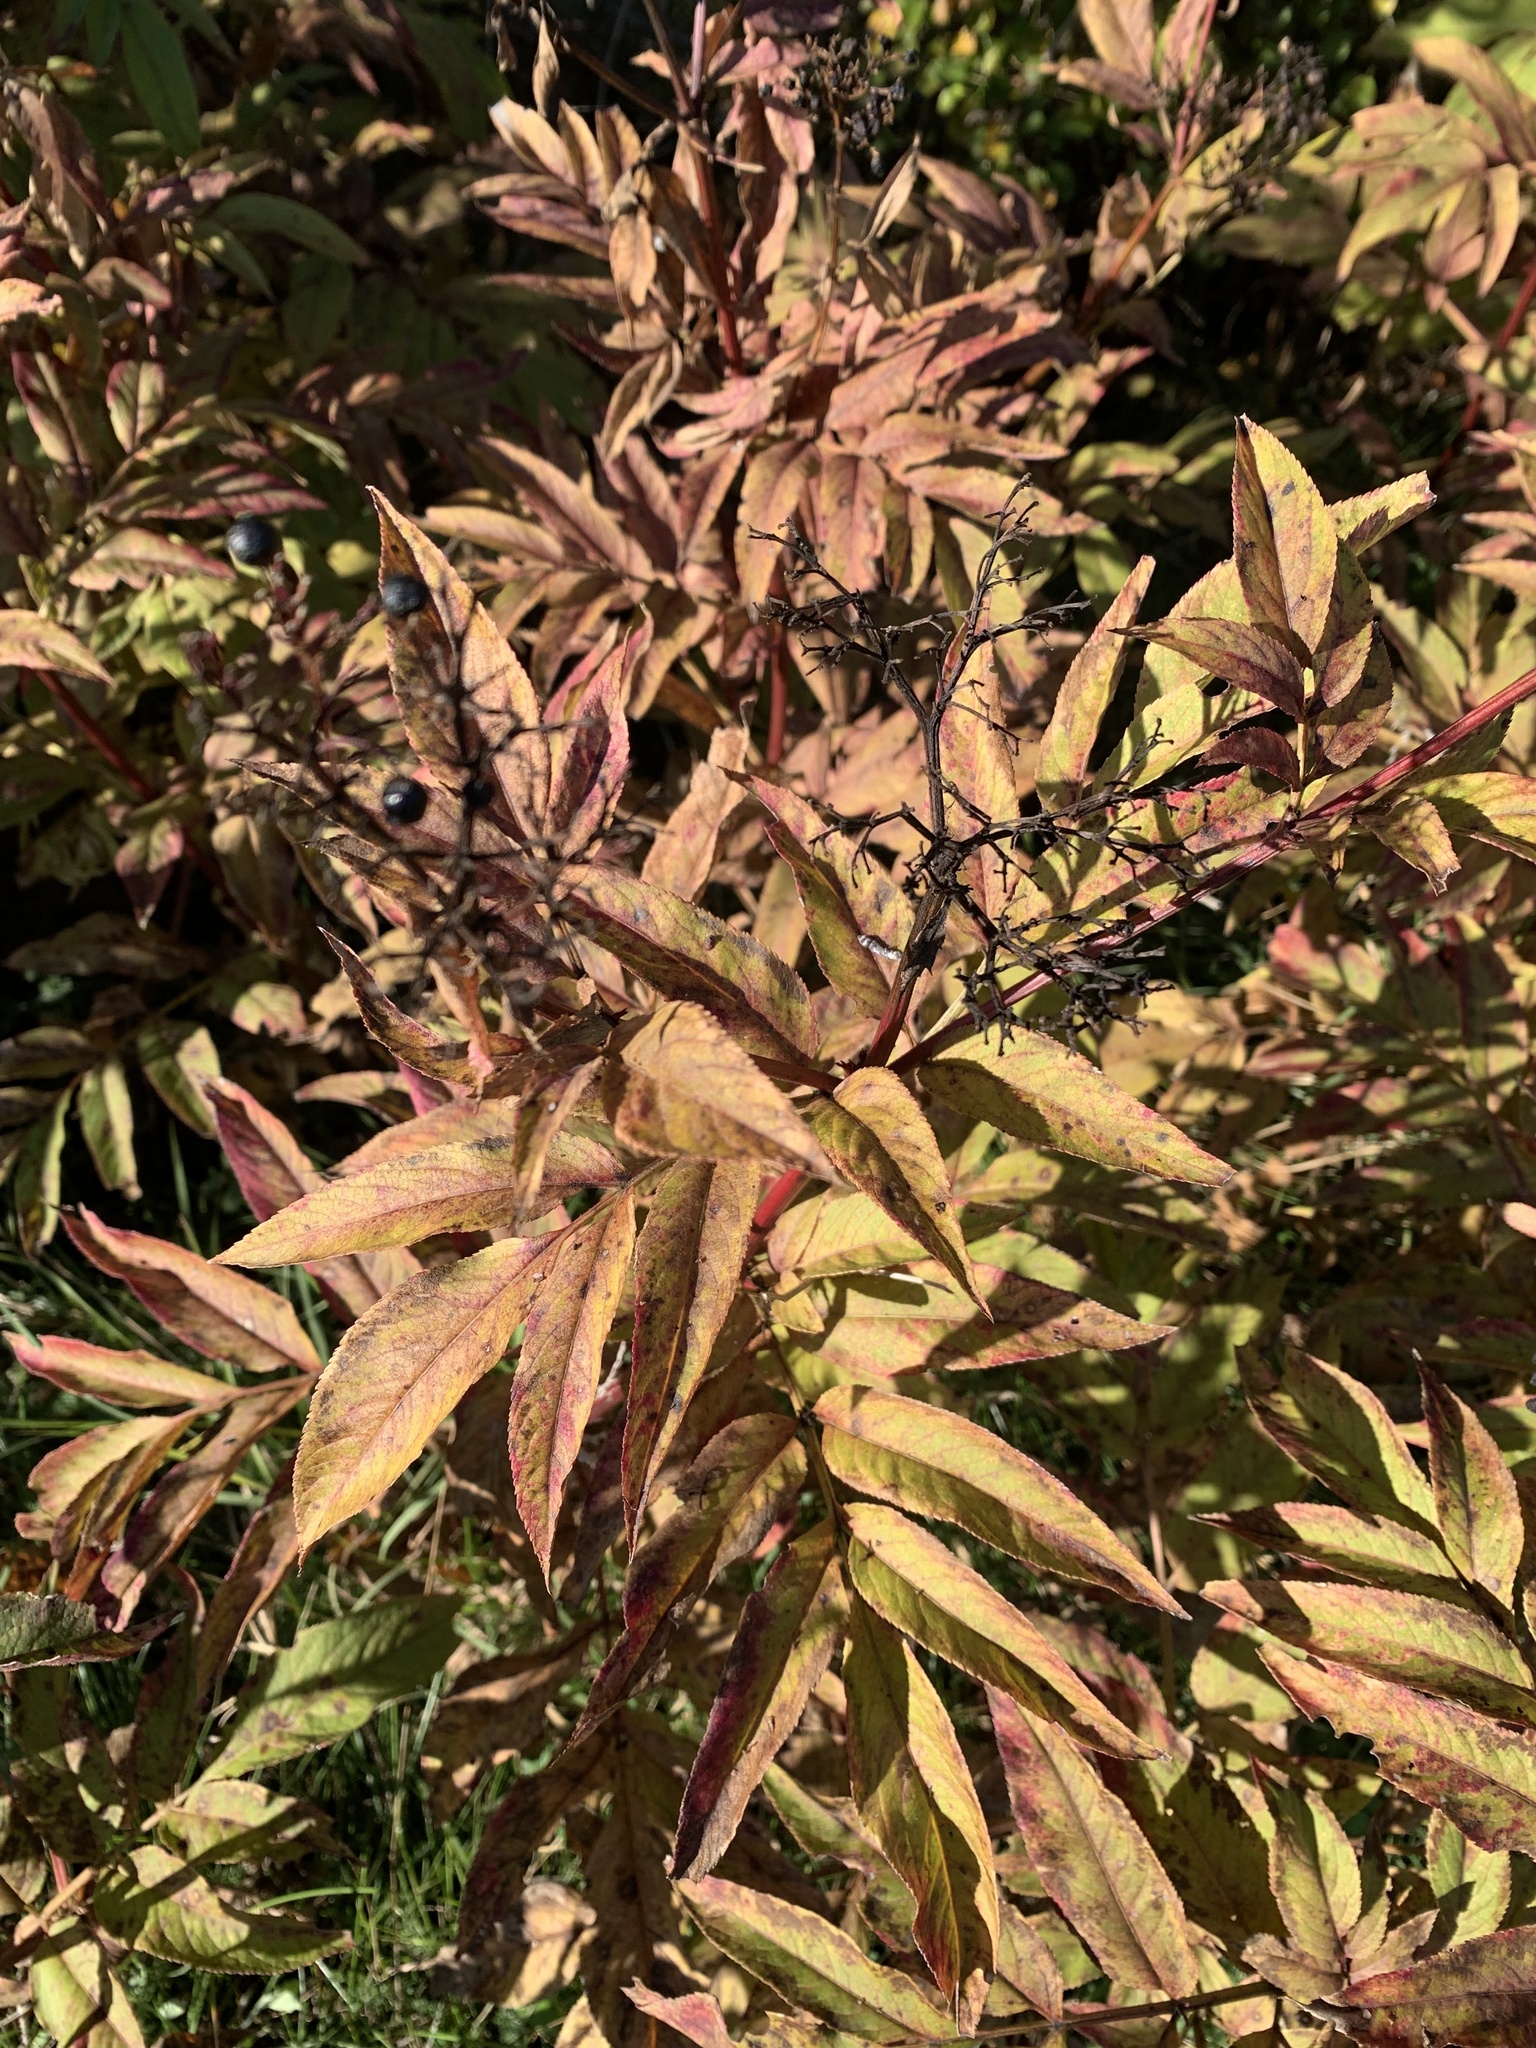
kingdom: Plantae
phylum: Tracheophyta
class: Magnoliopsida
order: Dipsacales
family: Viburnaceae
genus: Sambucus
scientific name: Sambucus ebulus
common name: Dwarf elder
